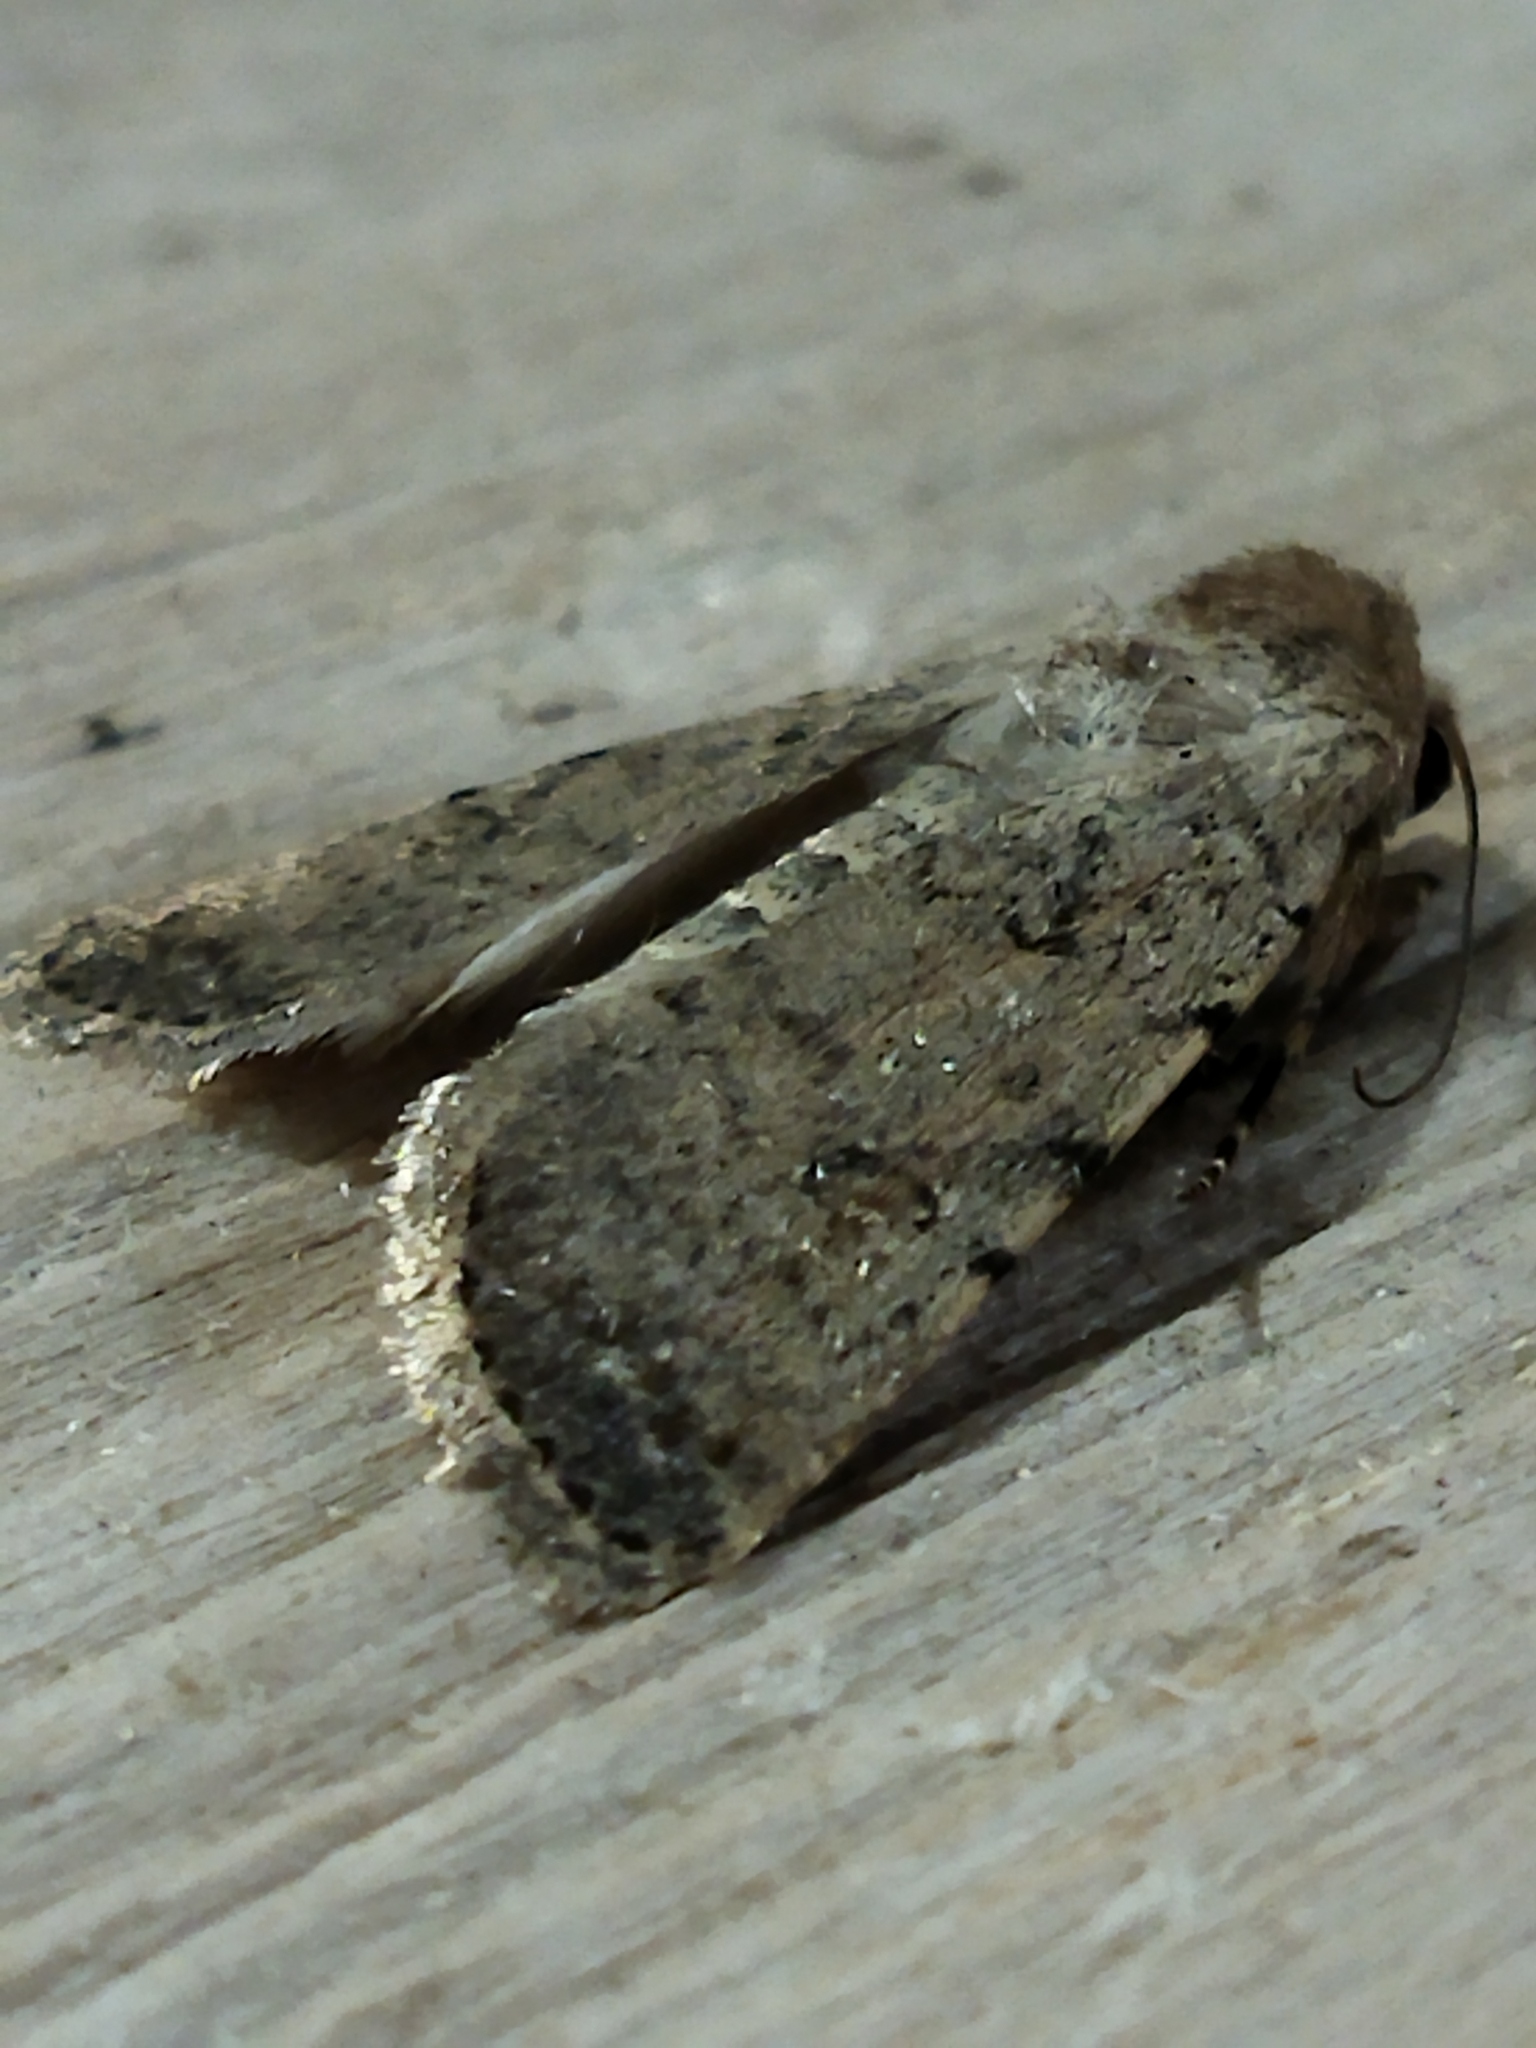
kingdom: Animalia
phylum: Arthropoda
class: Insecta
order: Lepidoptera
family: Noctuidae
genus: Caradrina
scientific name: Caradrina clavipalpis
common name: Pale mottled willow
